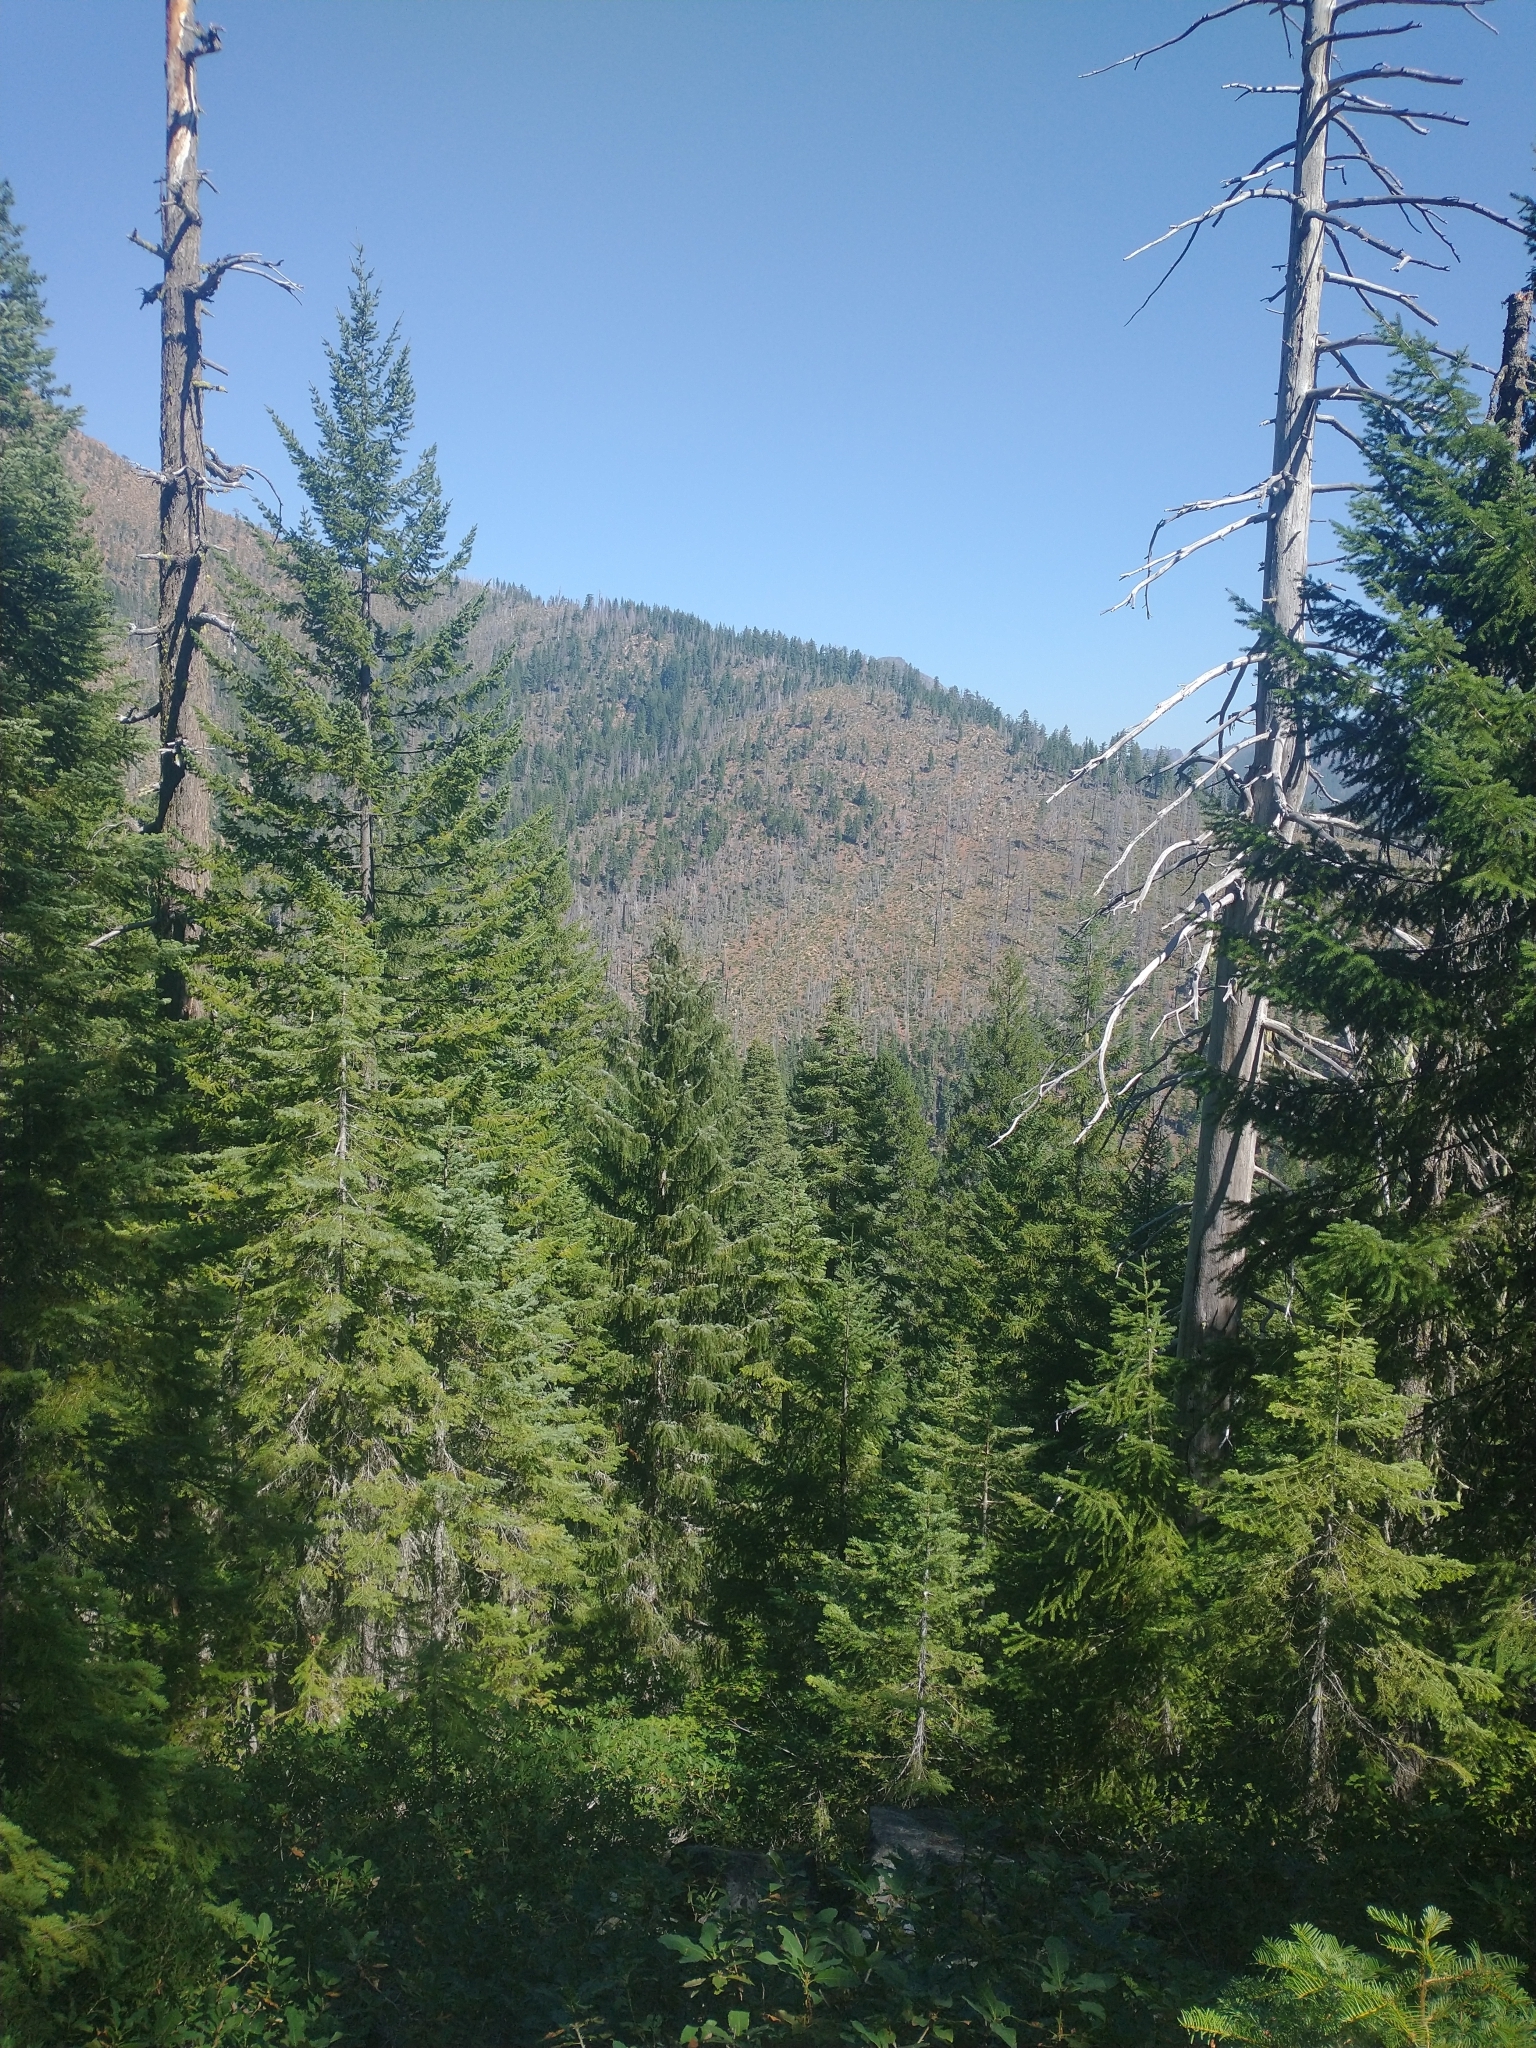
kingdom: Plantae
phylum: Tracheophyta
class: Pinopsida
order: Pinales
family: Pinaceae
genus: Pseudotsuga
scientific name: Pseudotsuga menziesii
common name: Douglas fir
